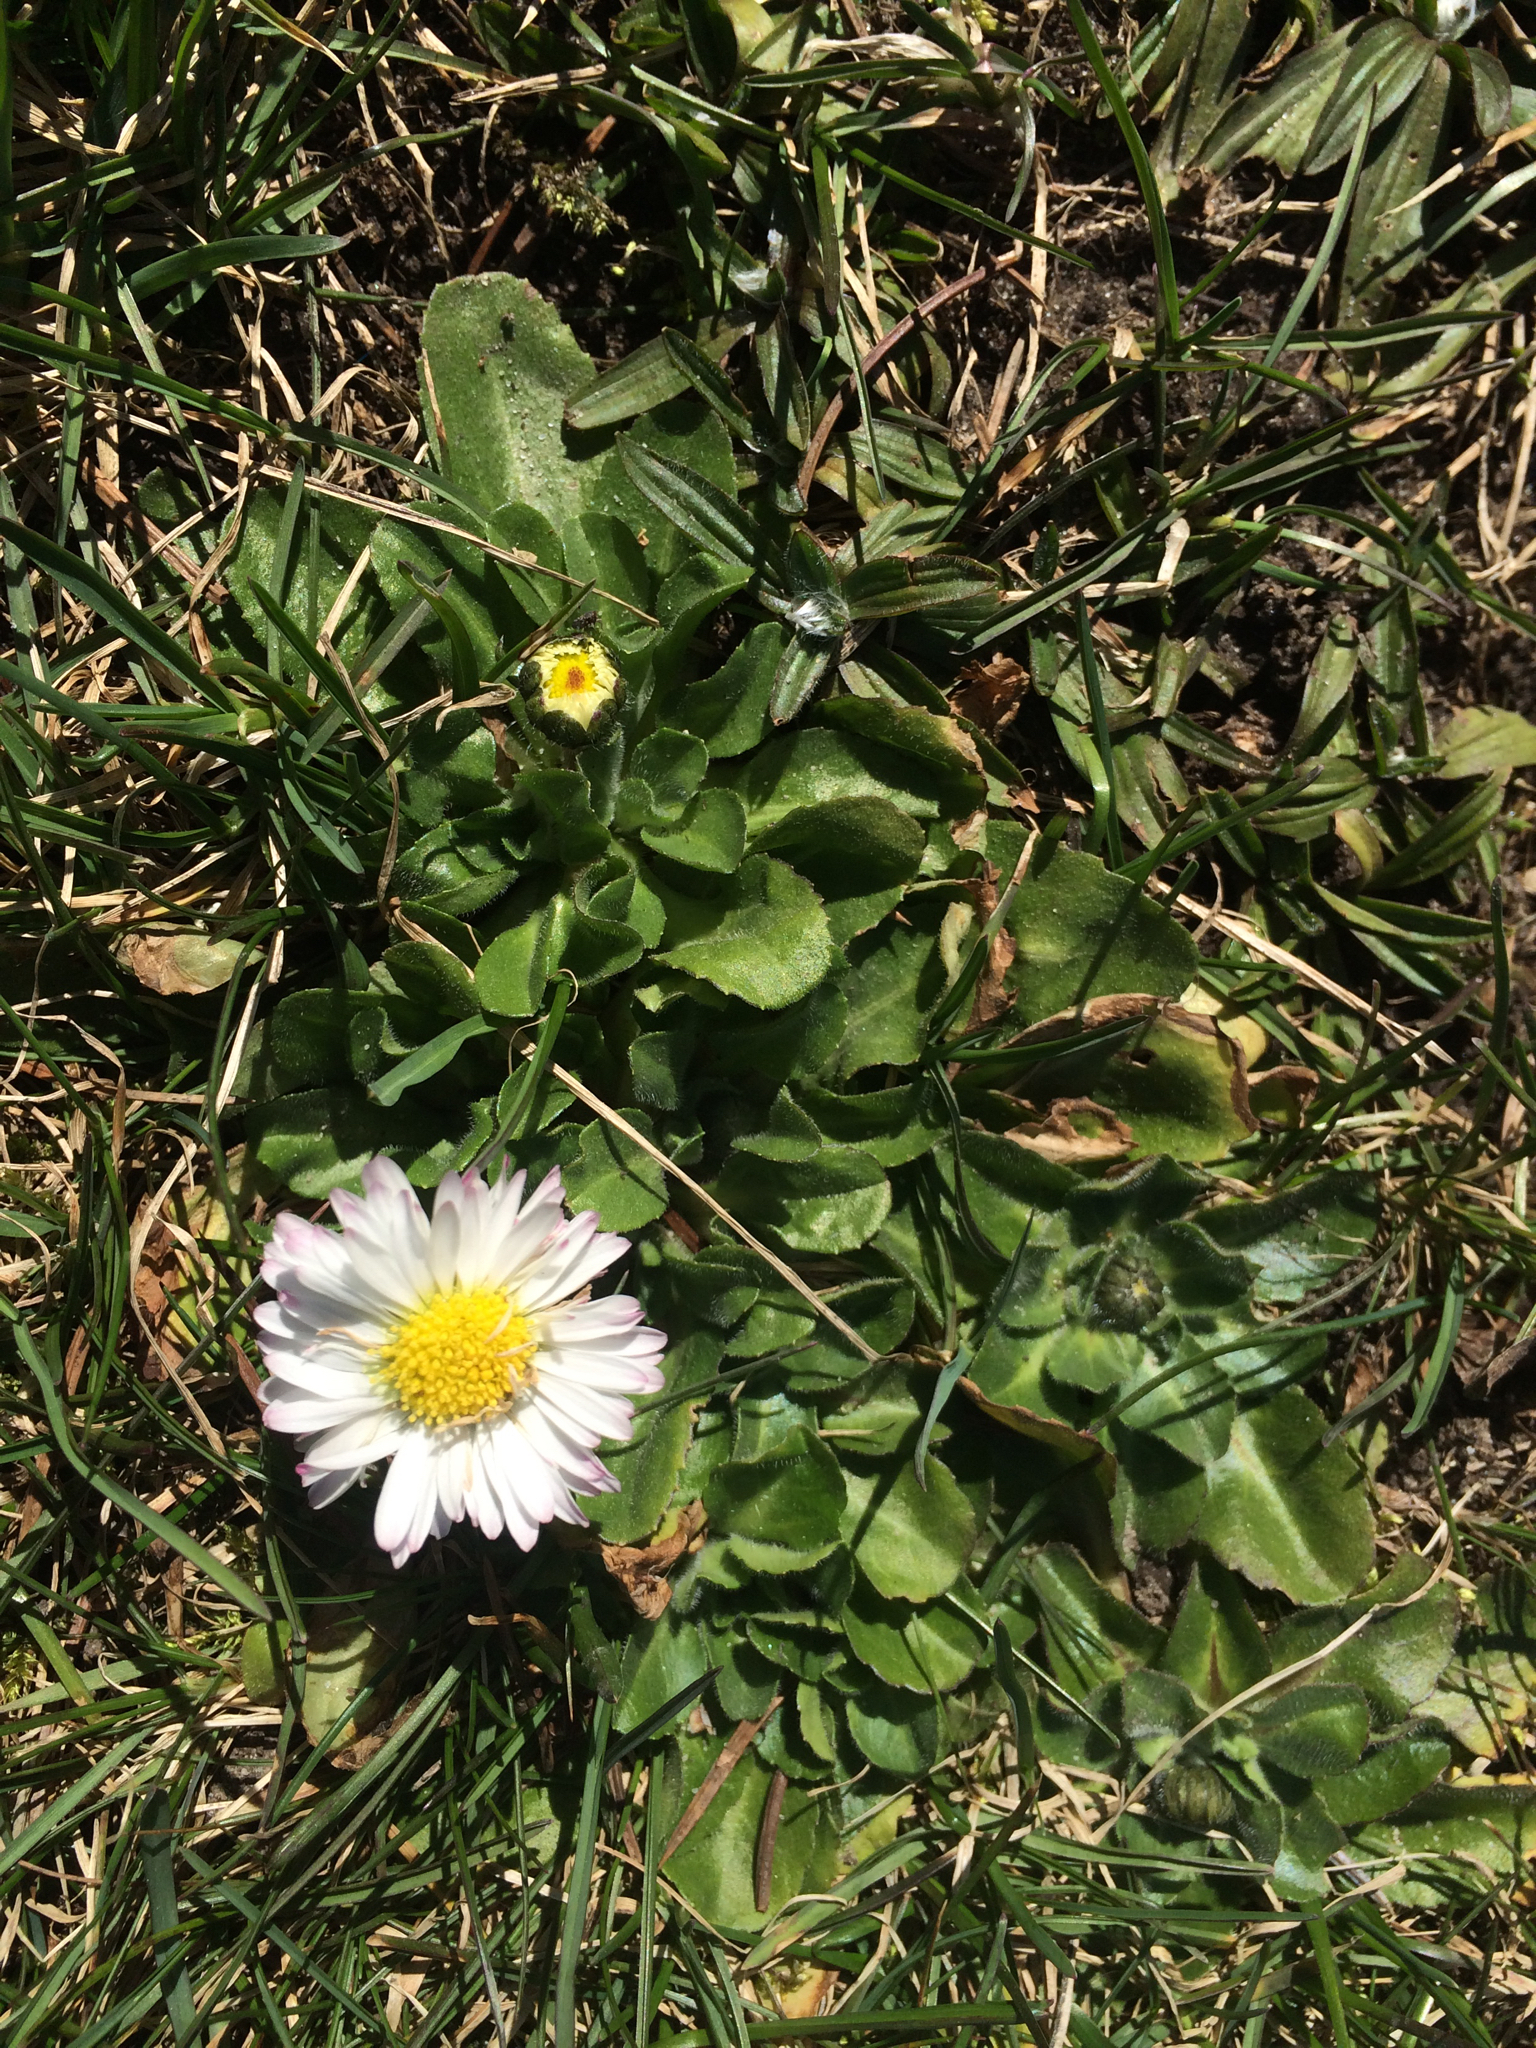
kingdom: Plantae
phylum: Tracheophyta
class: Magnoliopsida
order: Asterales
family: Asteraceae
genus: Bellis
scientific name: Bellis perennis
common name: Lawndaisy
